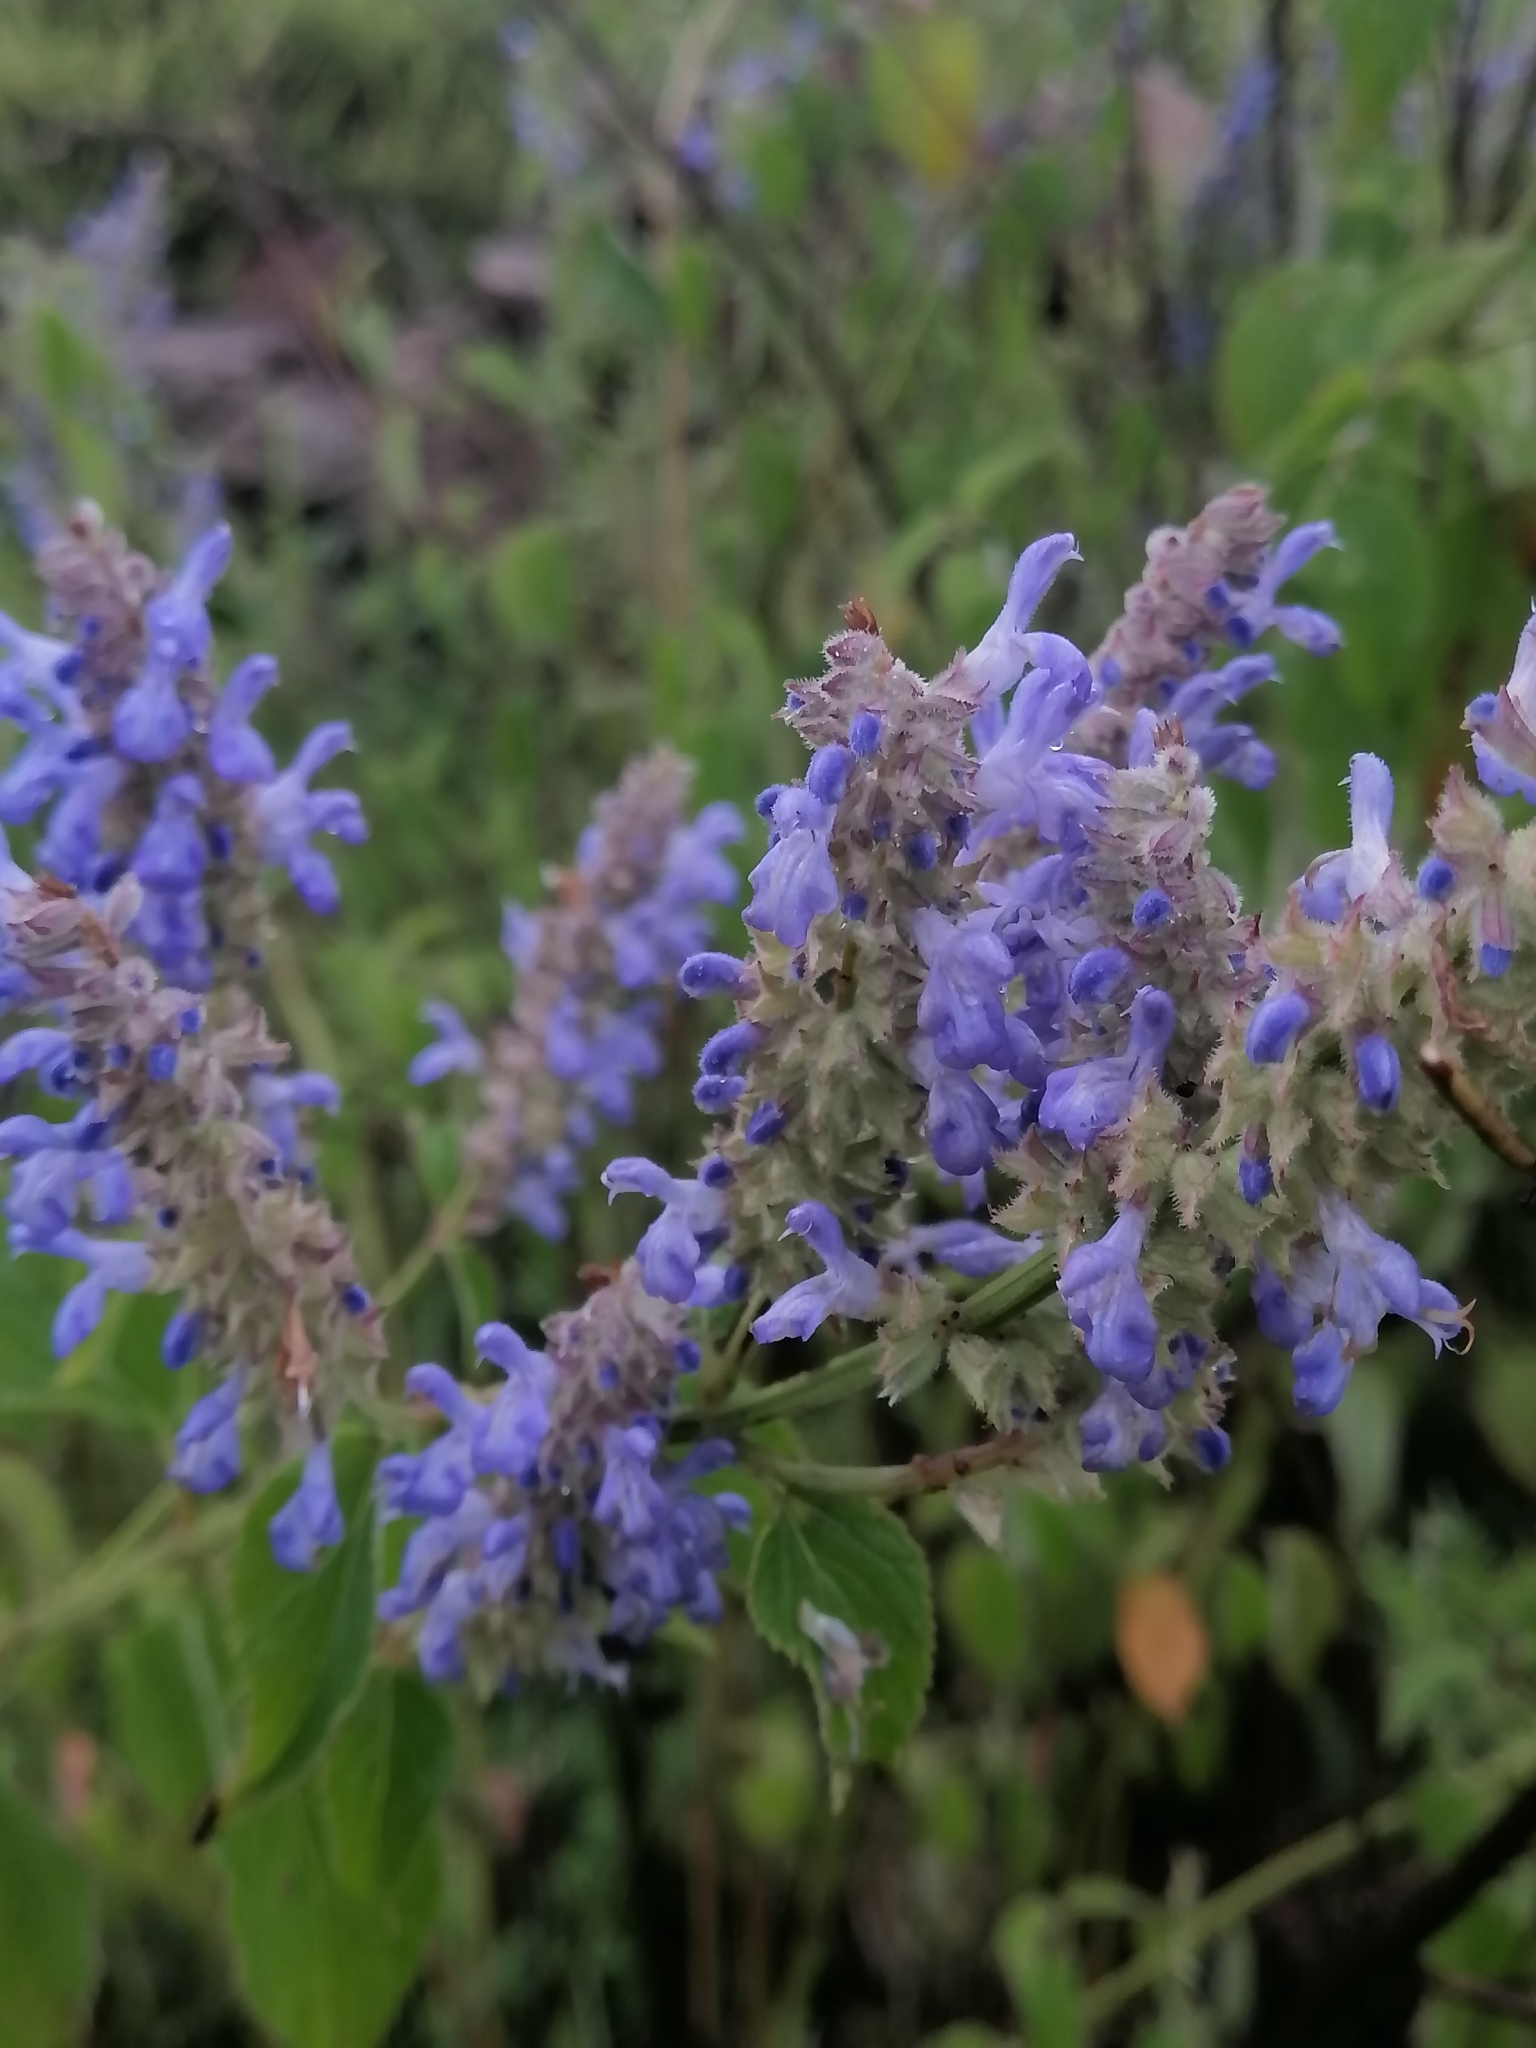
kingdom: Plantae
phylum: Tracheophyta
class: Magnoliopsida
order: Lamiales
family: Lamiaceae
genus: Salvia
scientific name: Salvia polystachia
